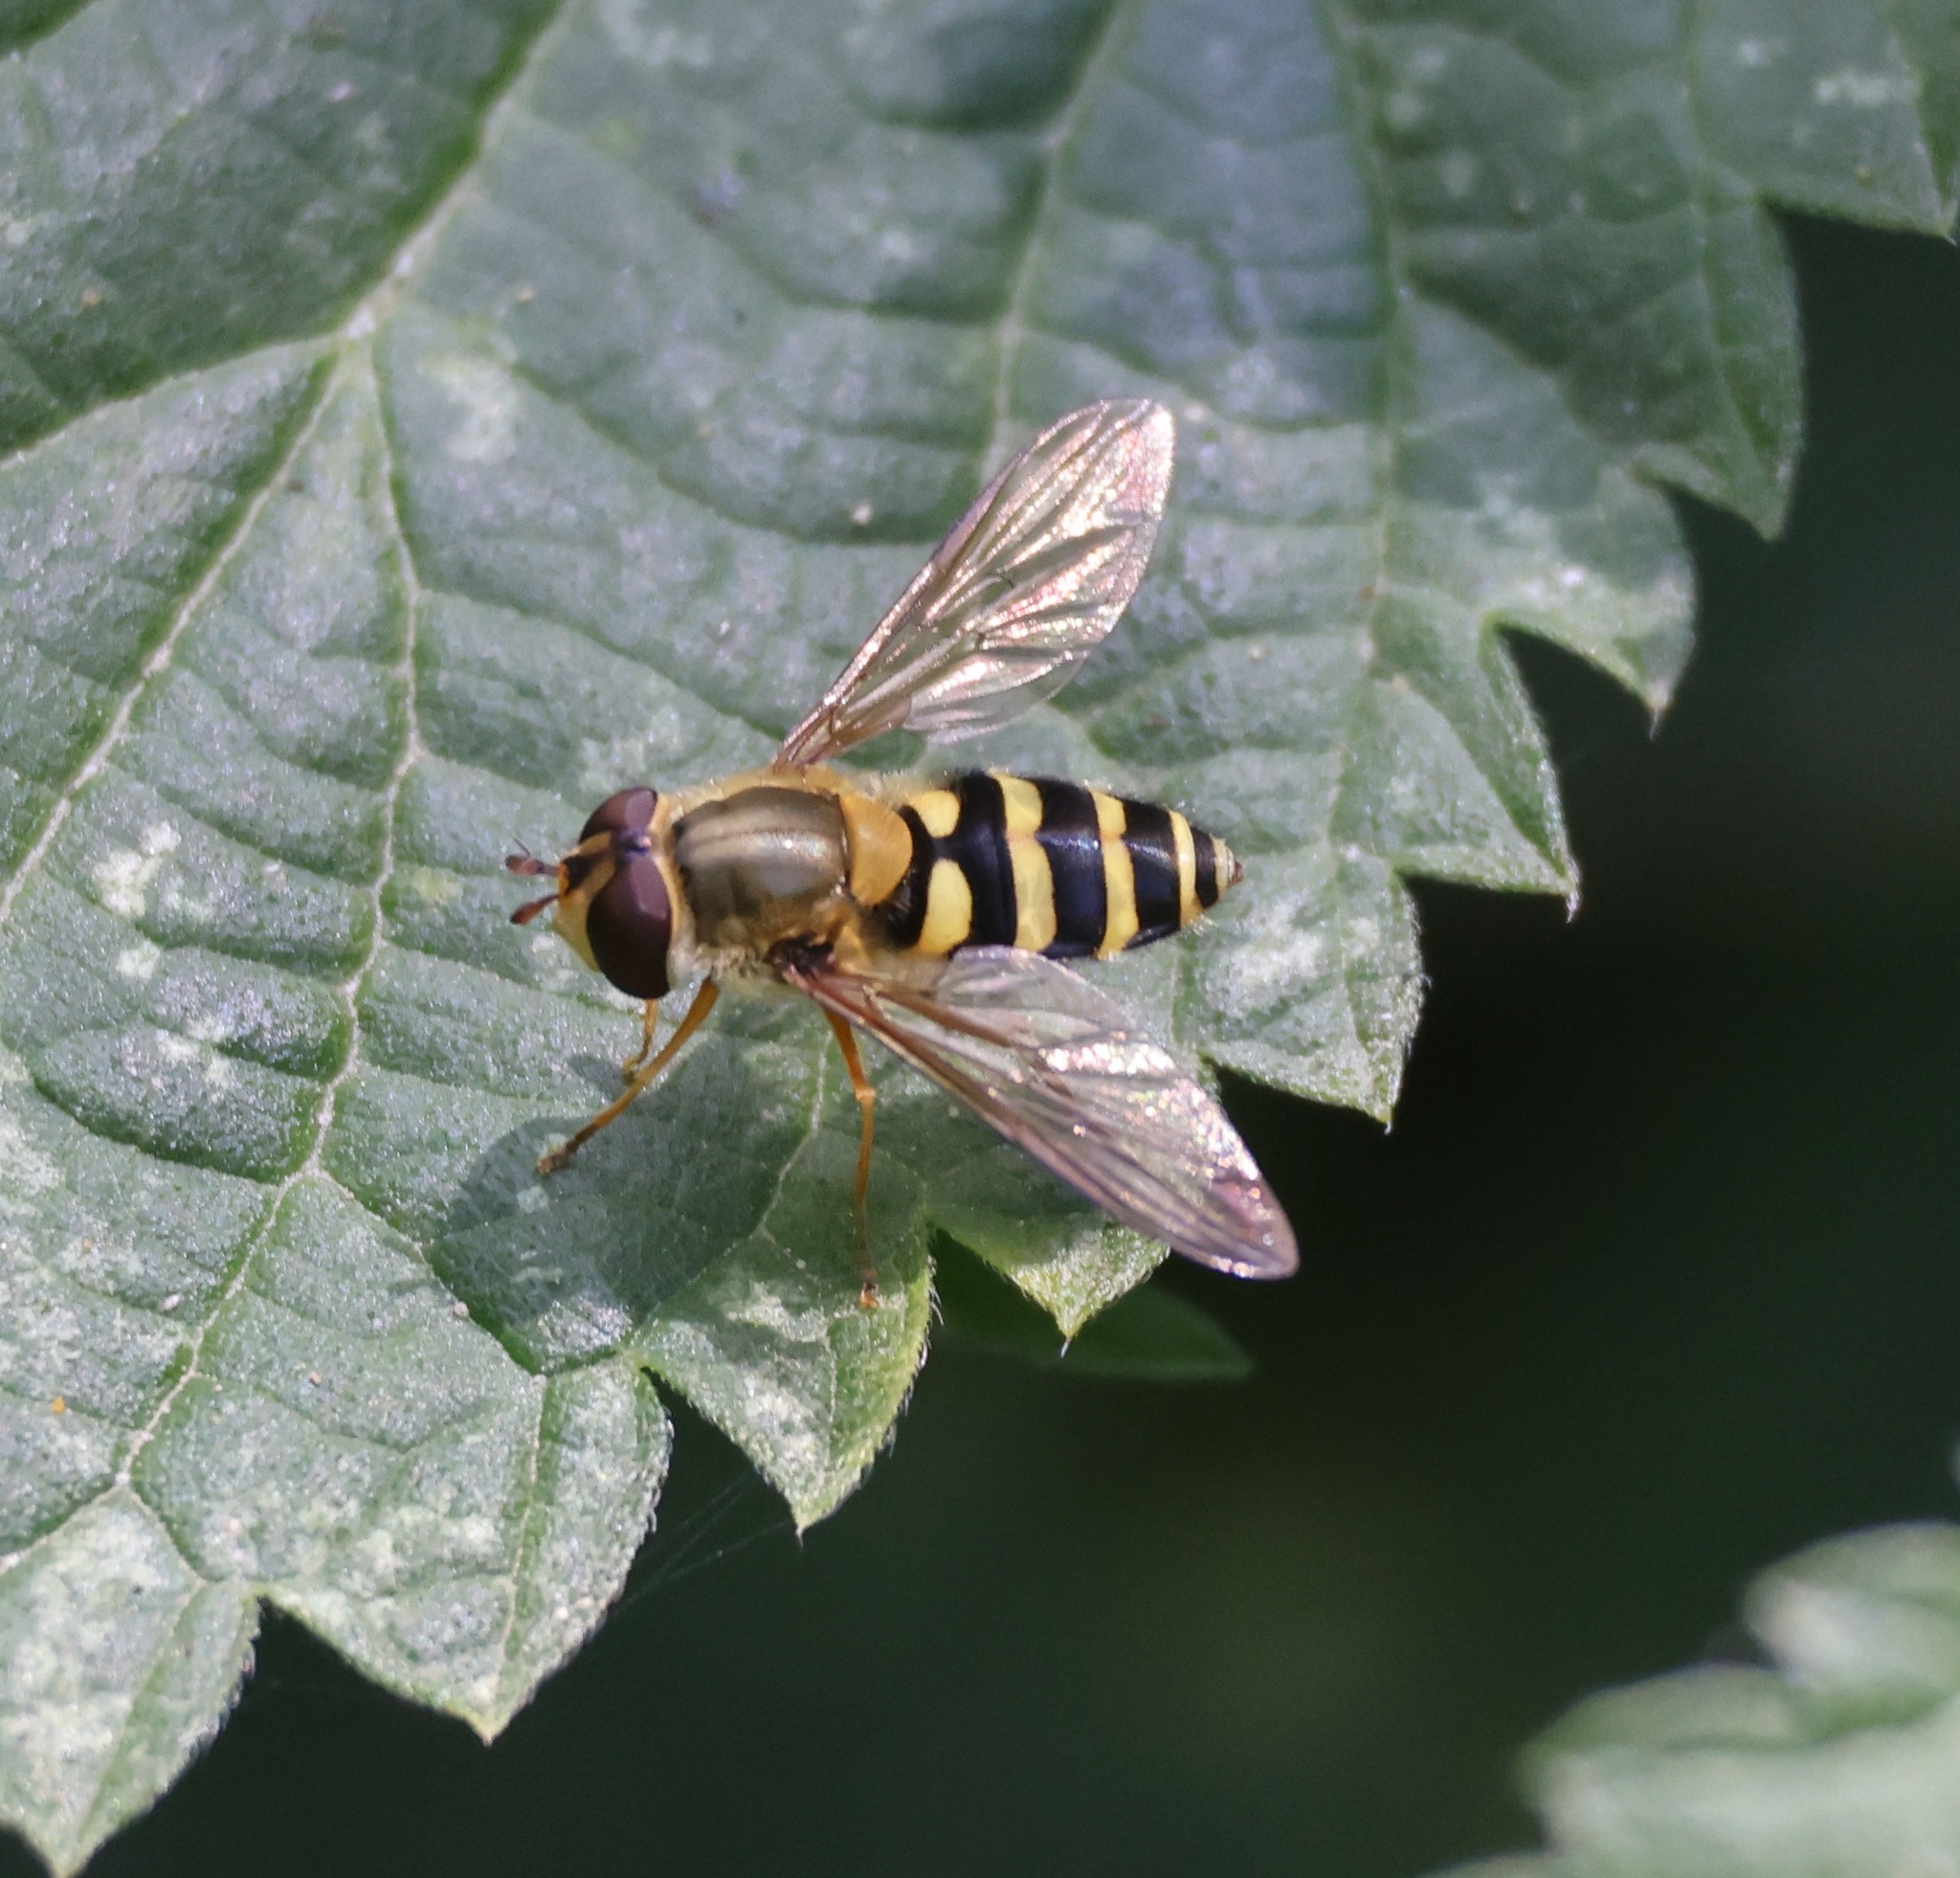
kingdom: Animalia
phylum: Arthropoda
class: Insecta
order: Diptera
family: Syrphidae
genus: Syrphus
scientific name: Syrphus ribesii
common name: Common flower fly
